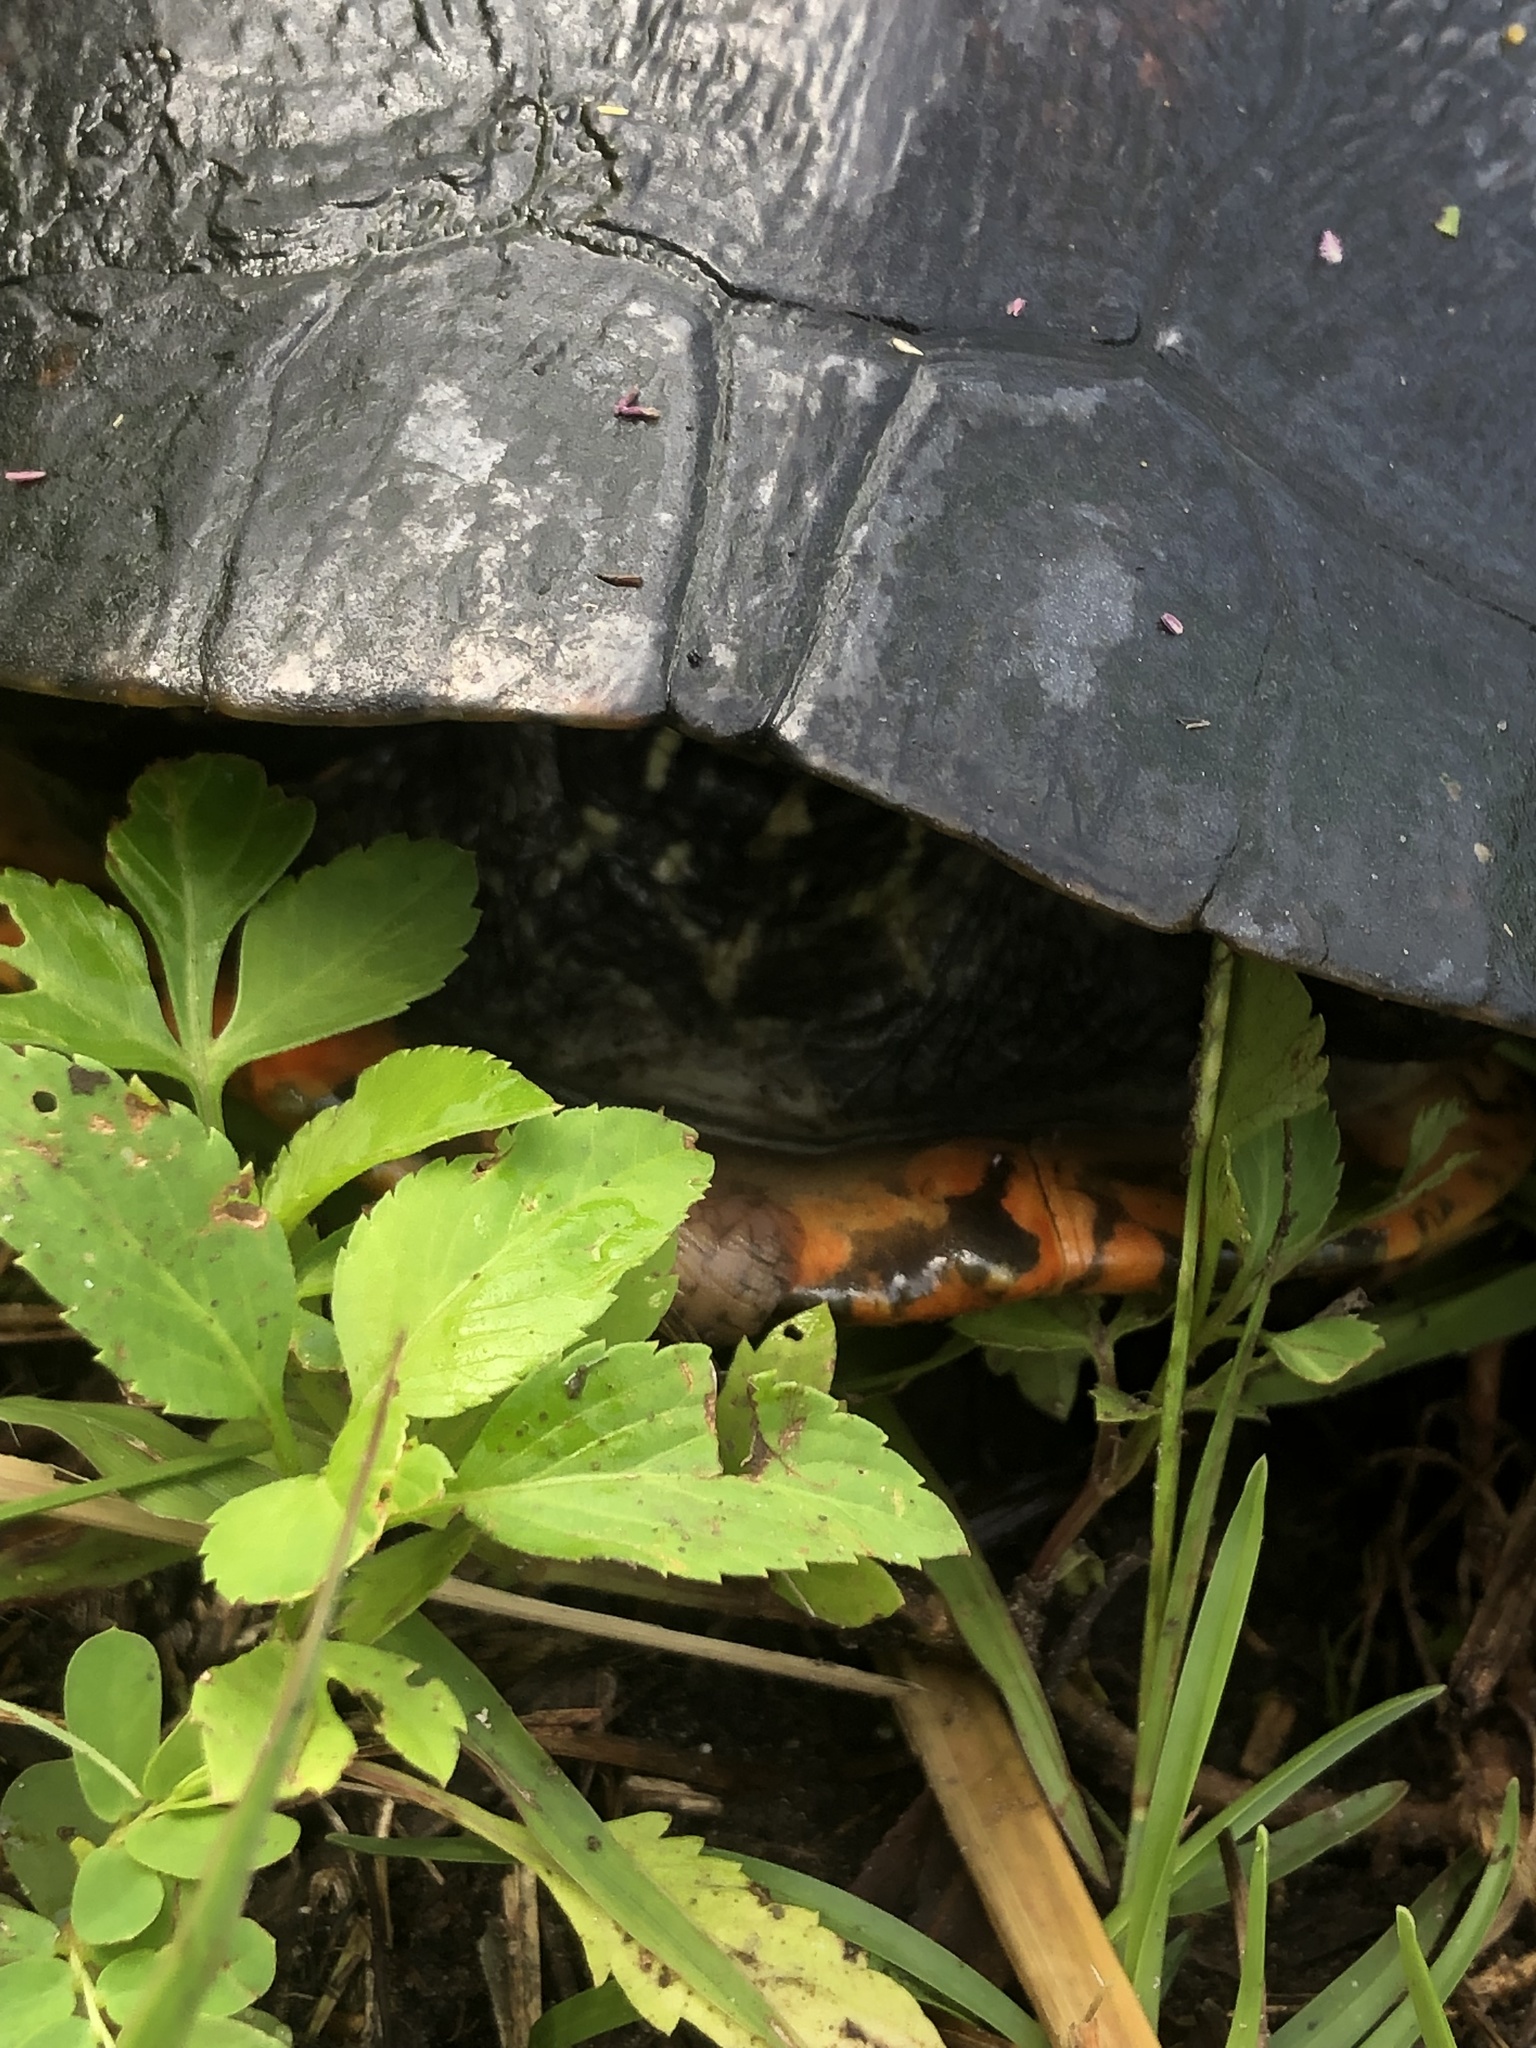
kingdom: Animalia
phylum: Chordata
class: Testudines
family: Emydidae
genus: Pseudemys
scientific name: Pseudemys nelsoni
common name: Florida red-bellied turtle
